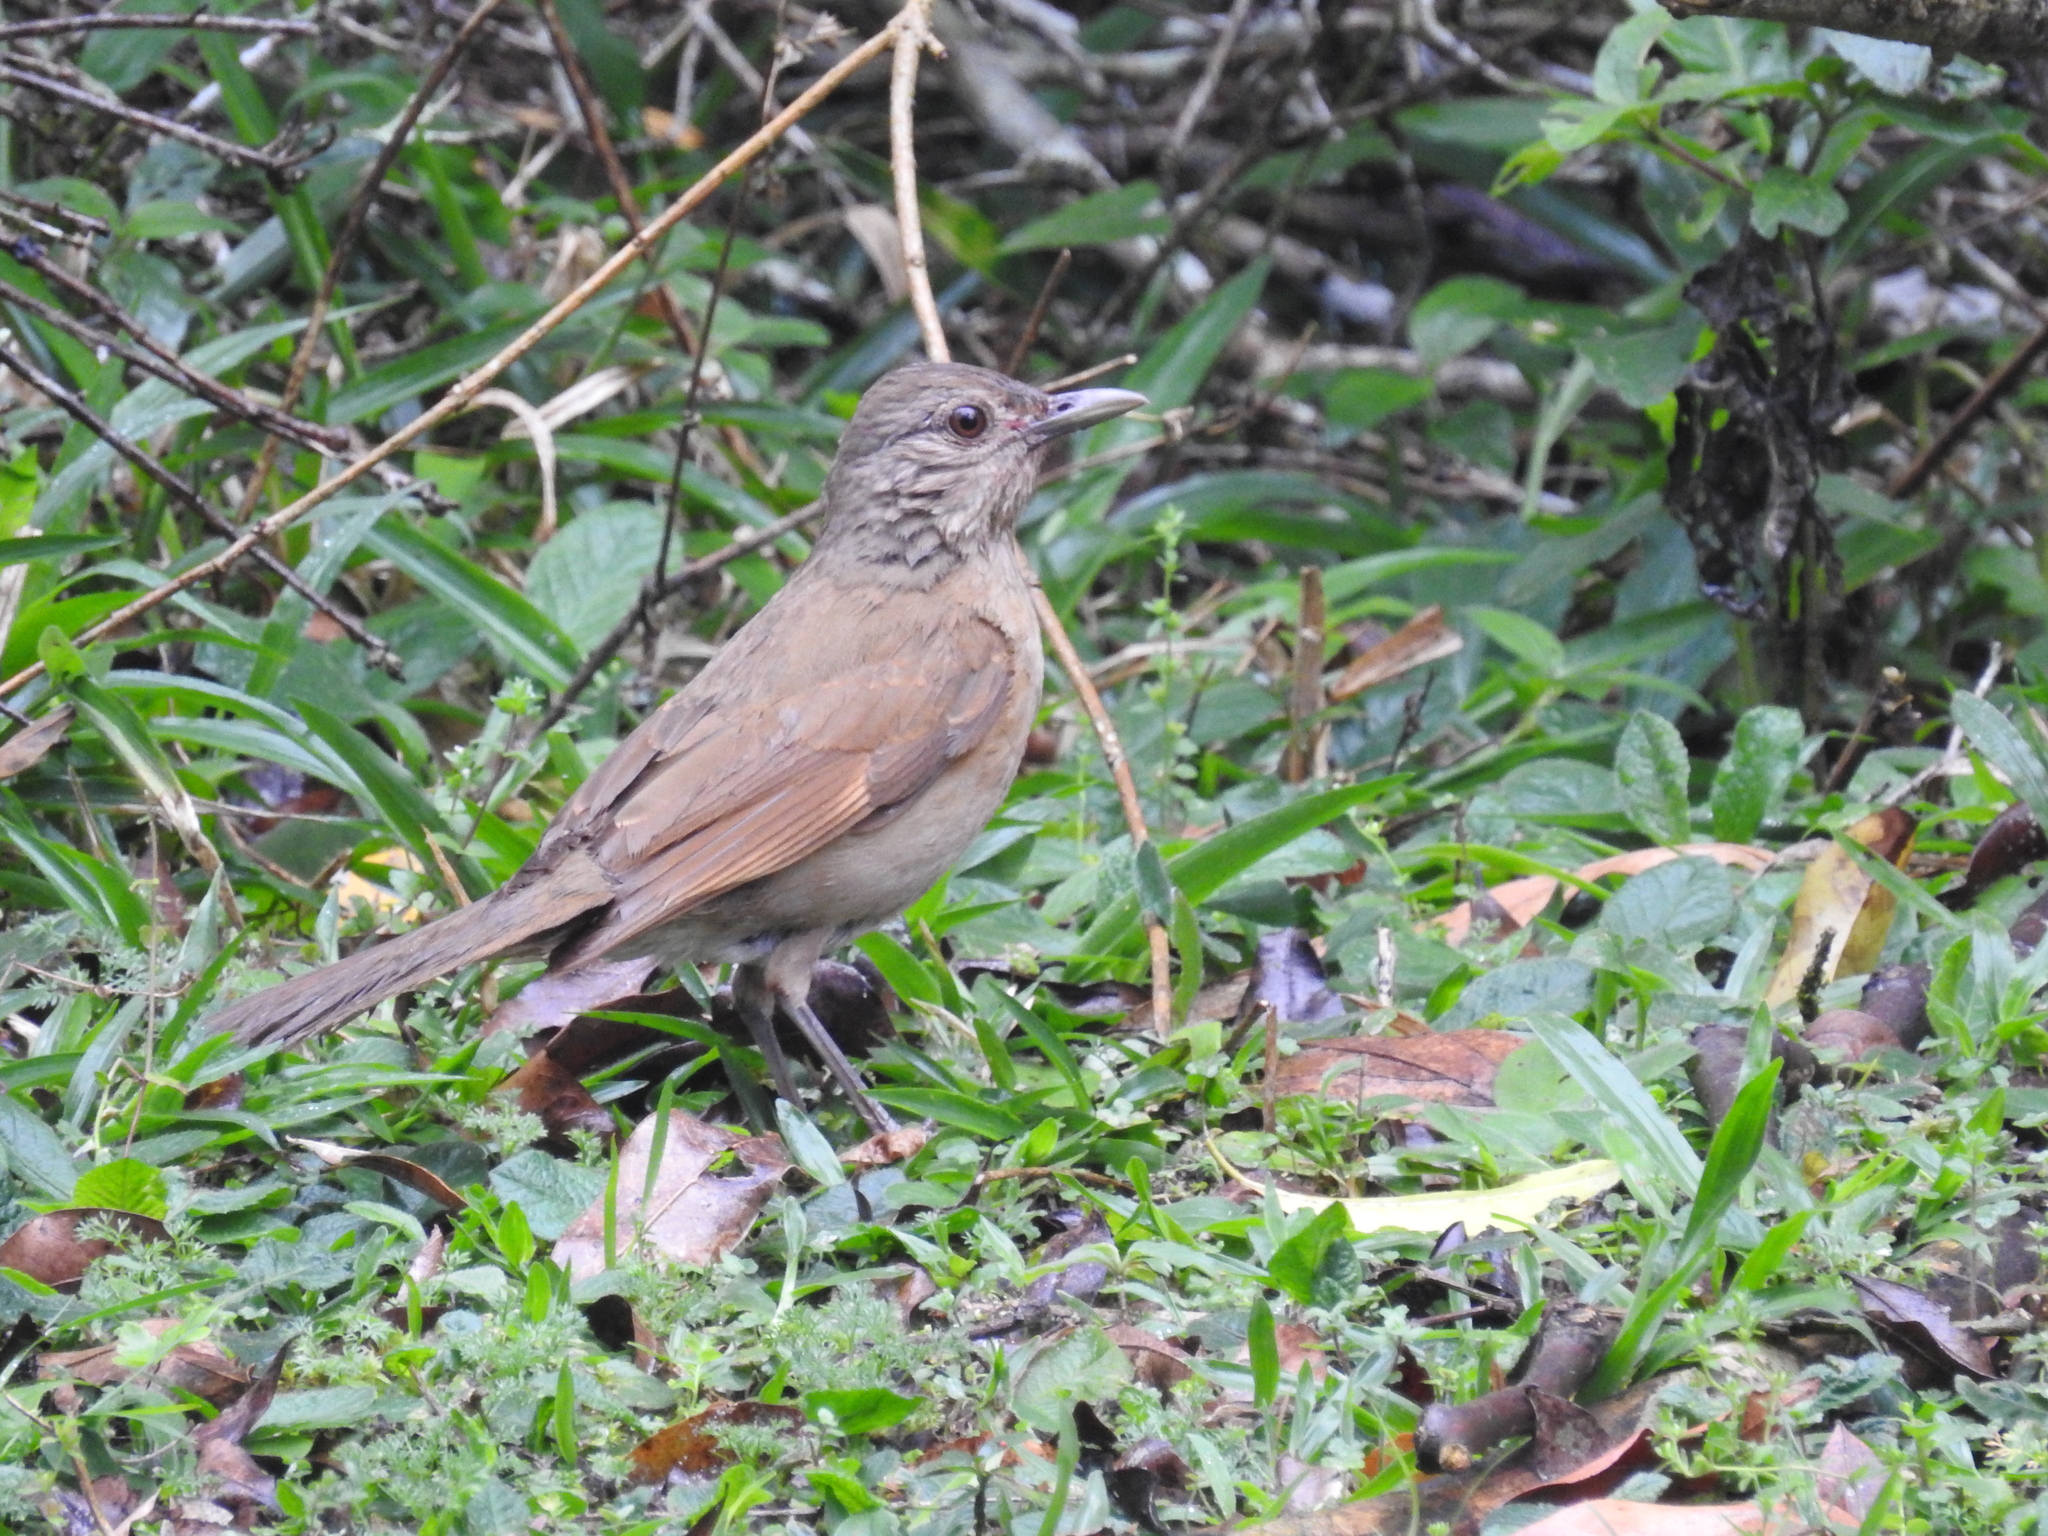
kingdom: Animalia
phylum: Chordata
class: Aves
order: Passeriformes
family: Turdidae
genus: Turdus
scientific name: Turdus leucomelas
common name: Pale-breasted thrush
